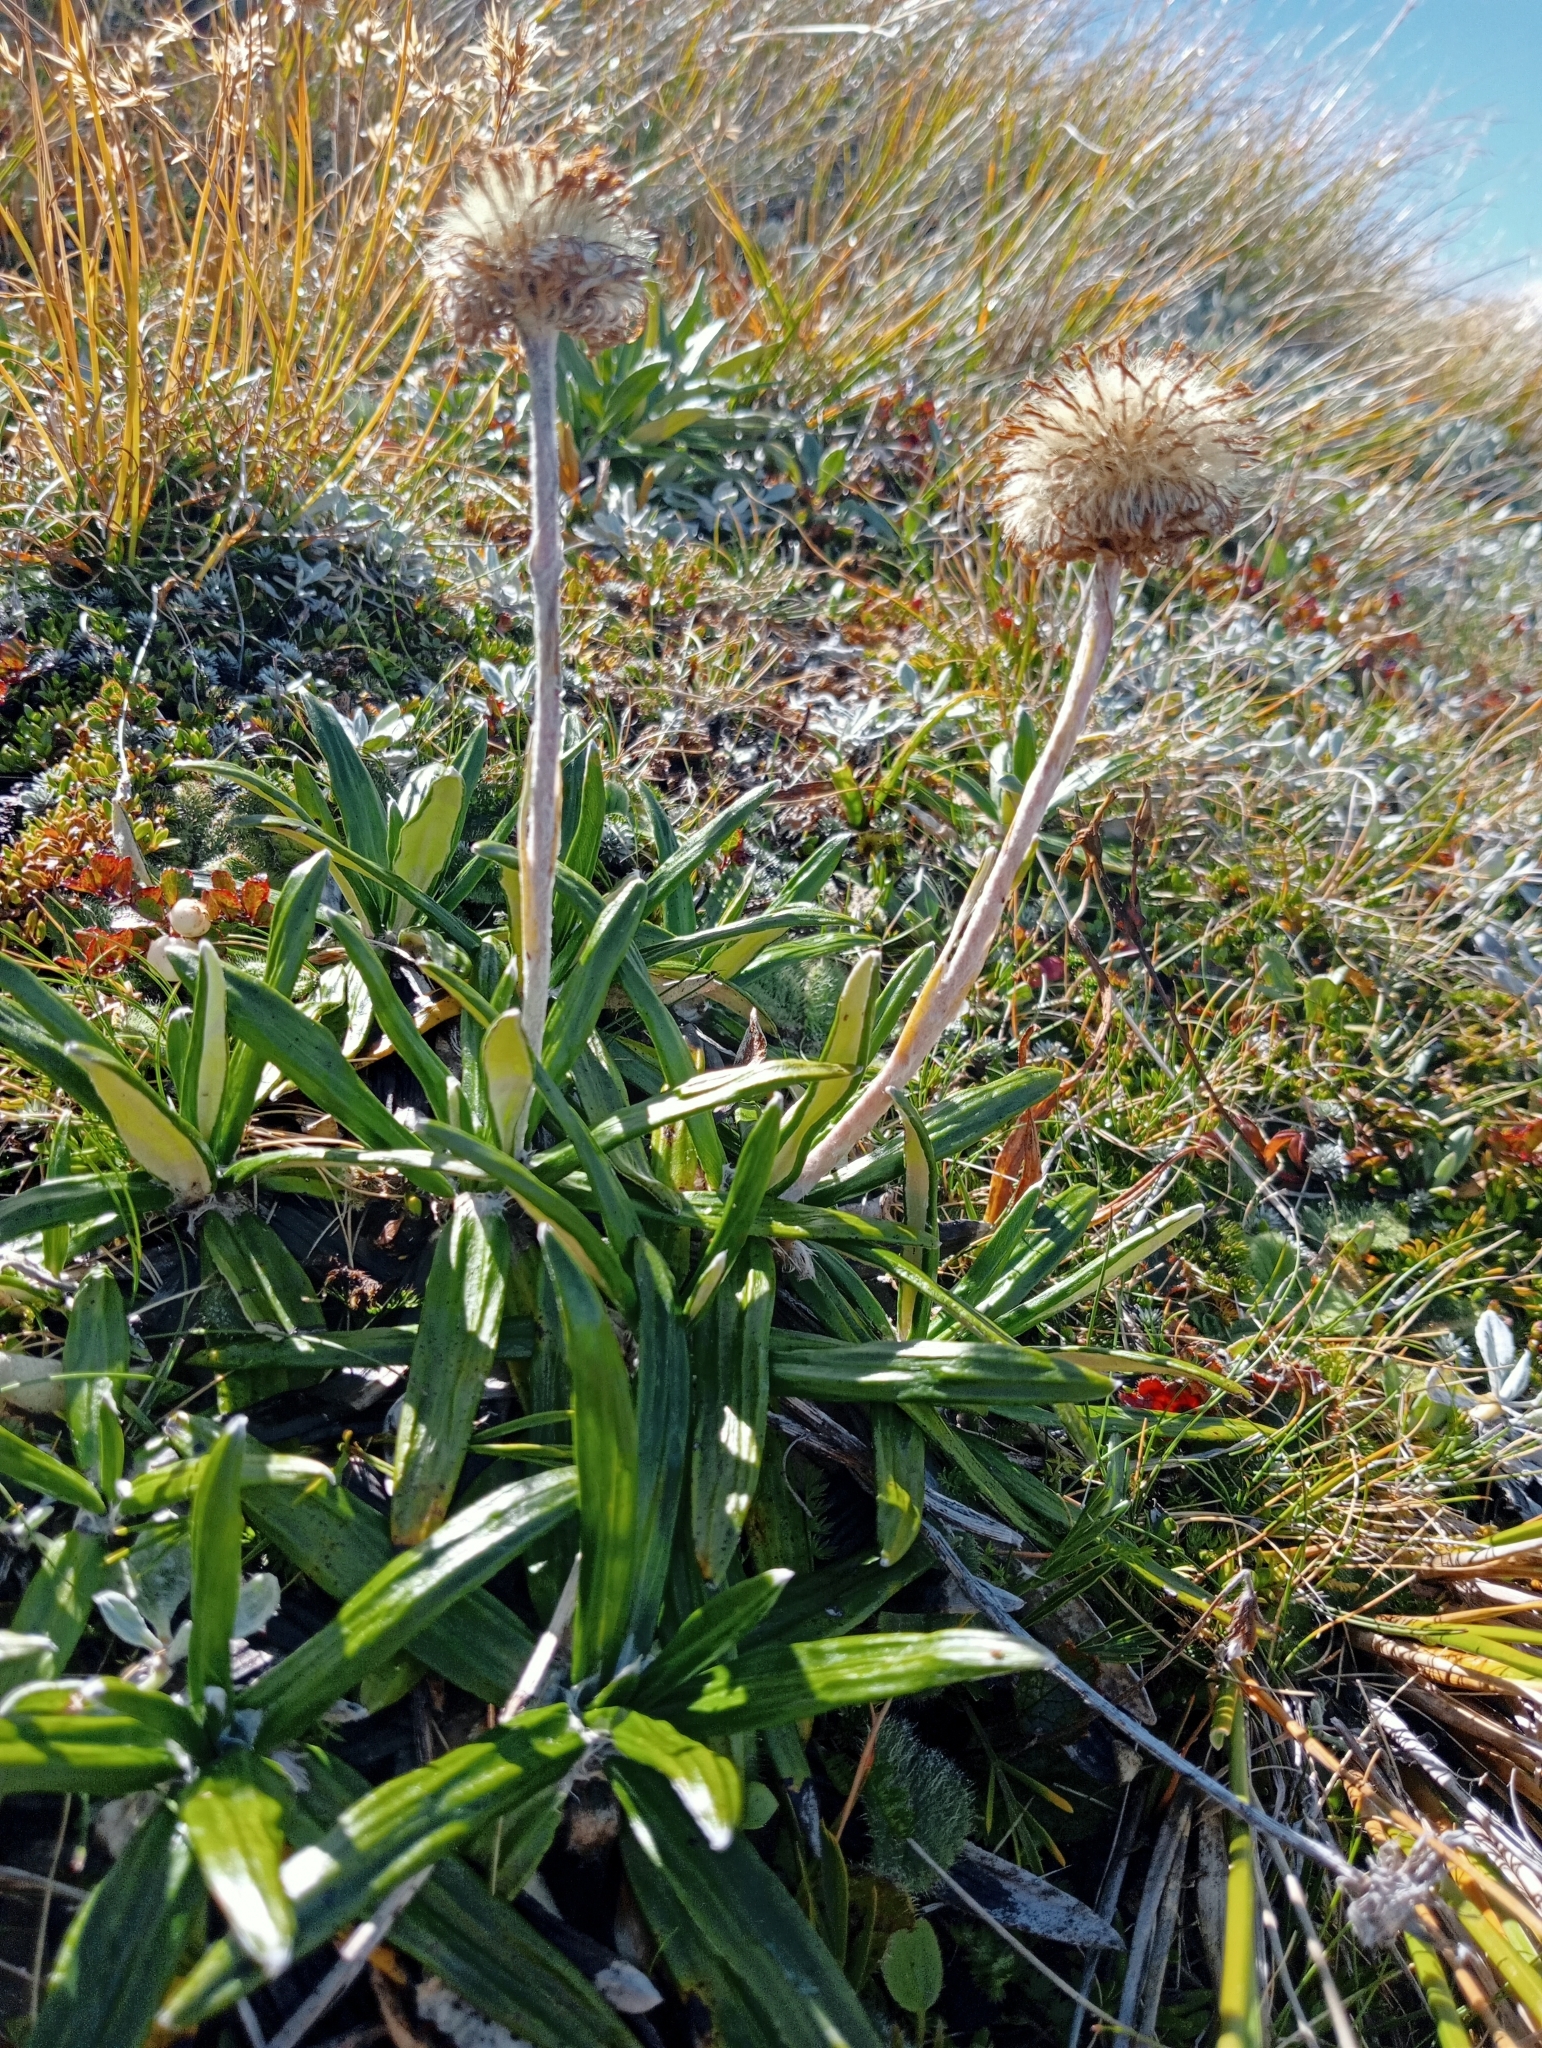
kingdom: Plantae
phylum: Tracheophyta
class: Magnoliopsida
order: Asterales
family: Asteraceae
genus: Celmisia
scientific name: Celmisia spectabilis
